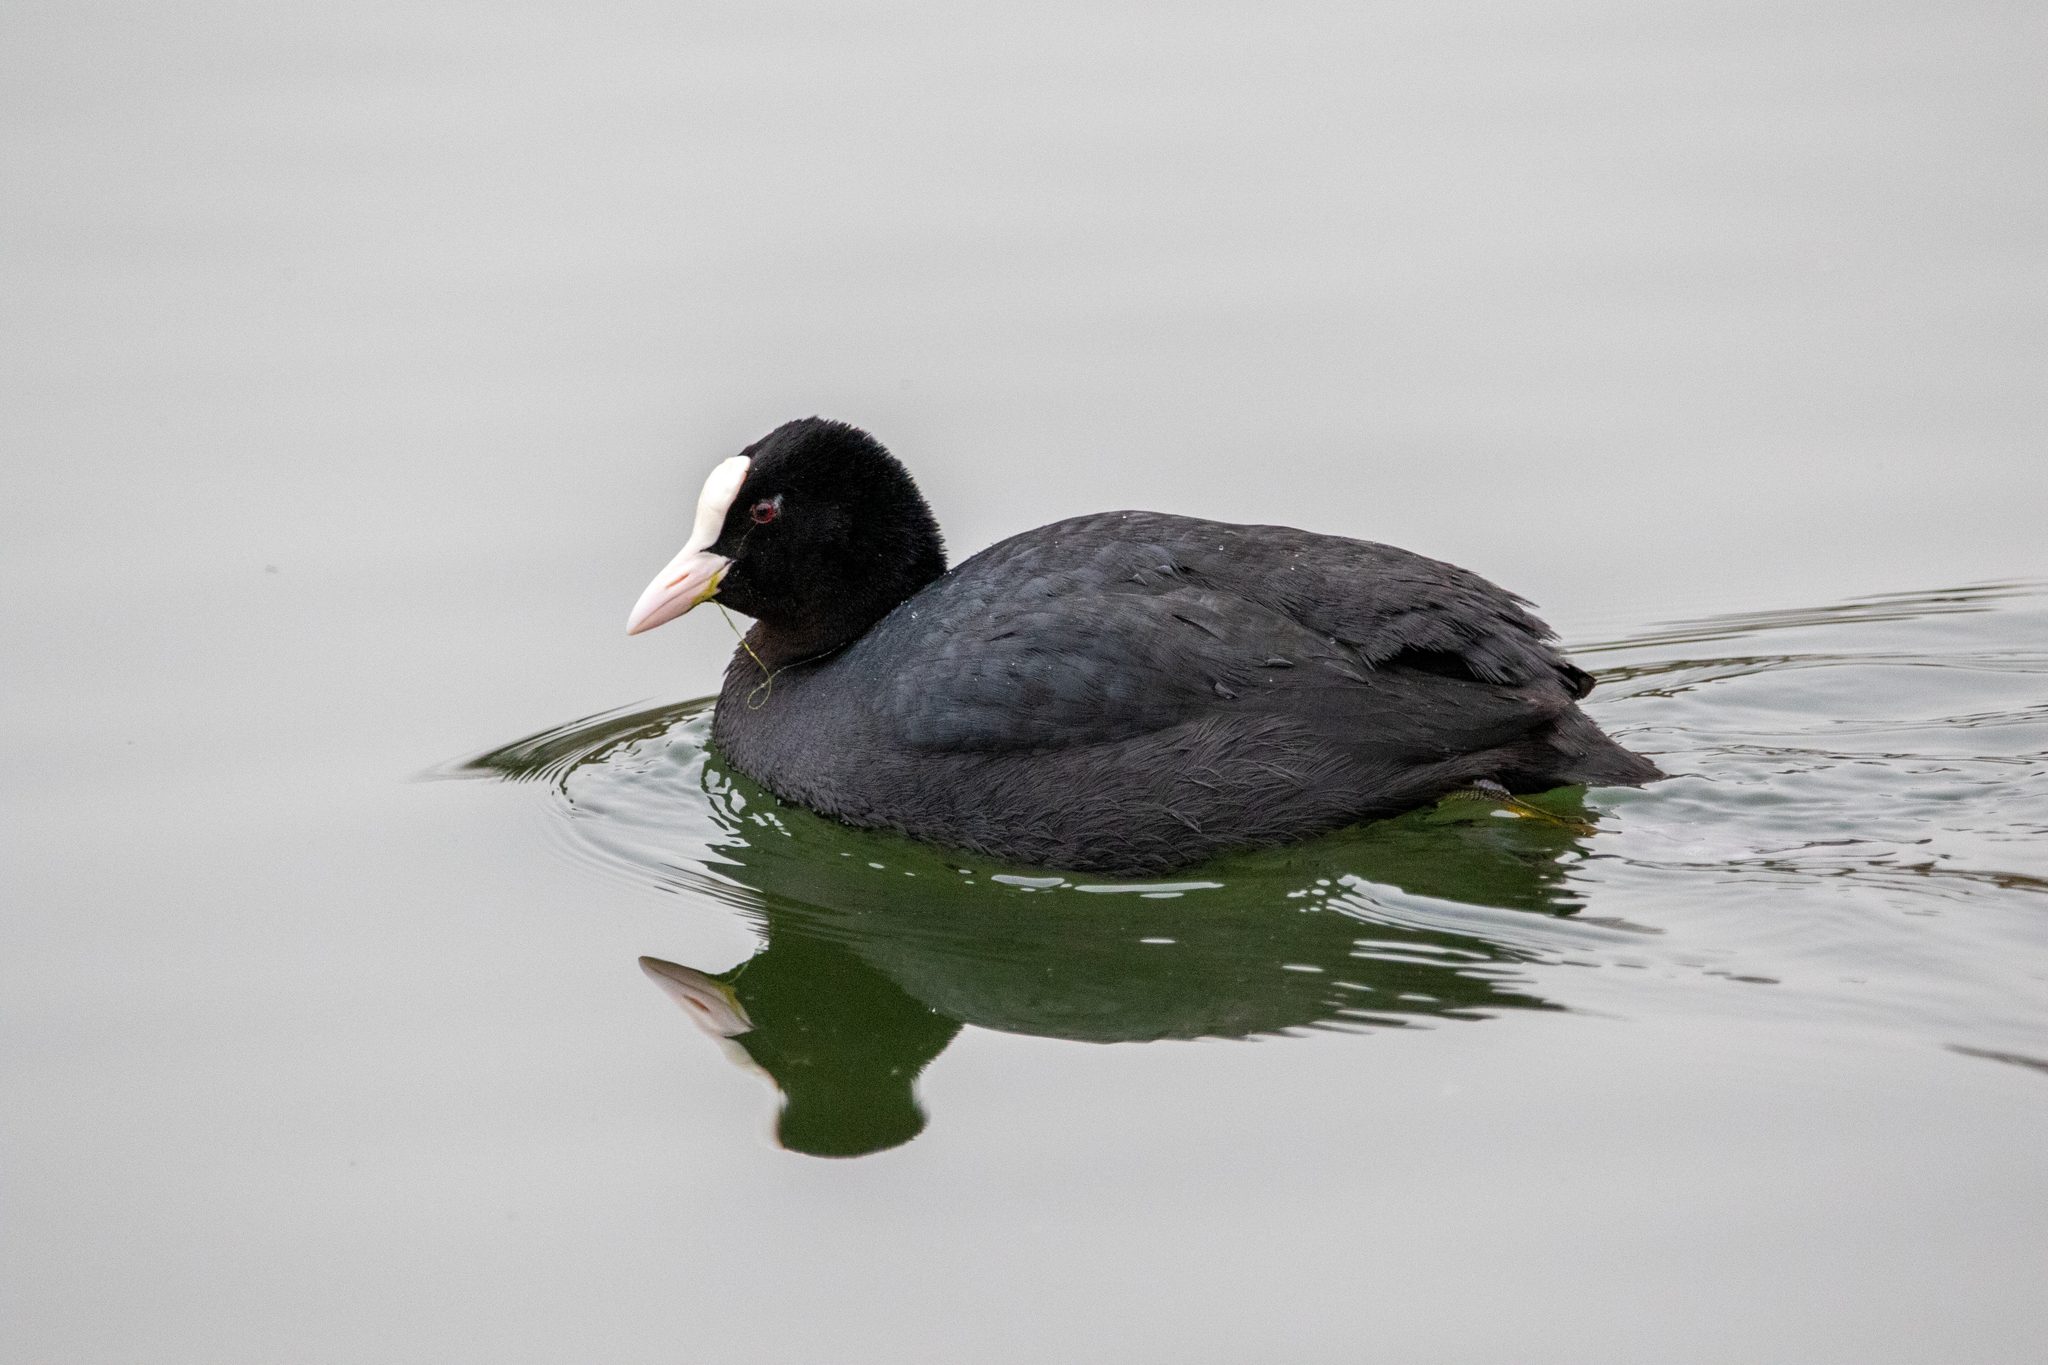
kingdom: Animalia
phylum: Chordata
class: Aves
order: Gruiformes
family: Rallidae
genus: Fulica
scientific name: Fulica atra
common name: Eurasian coot
